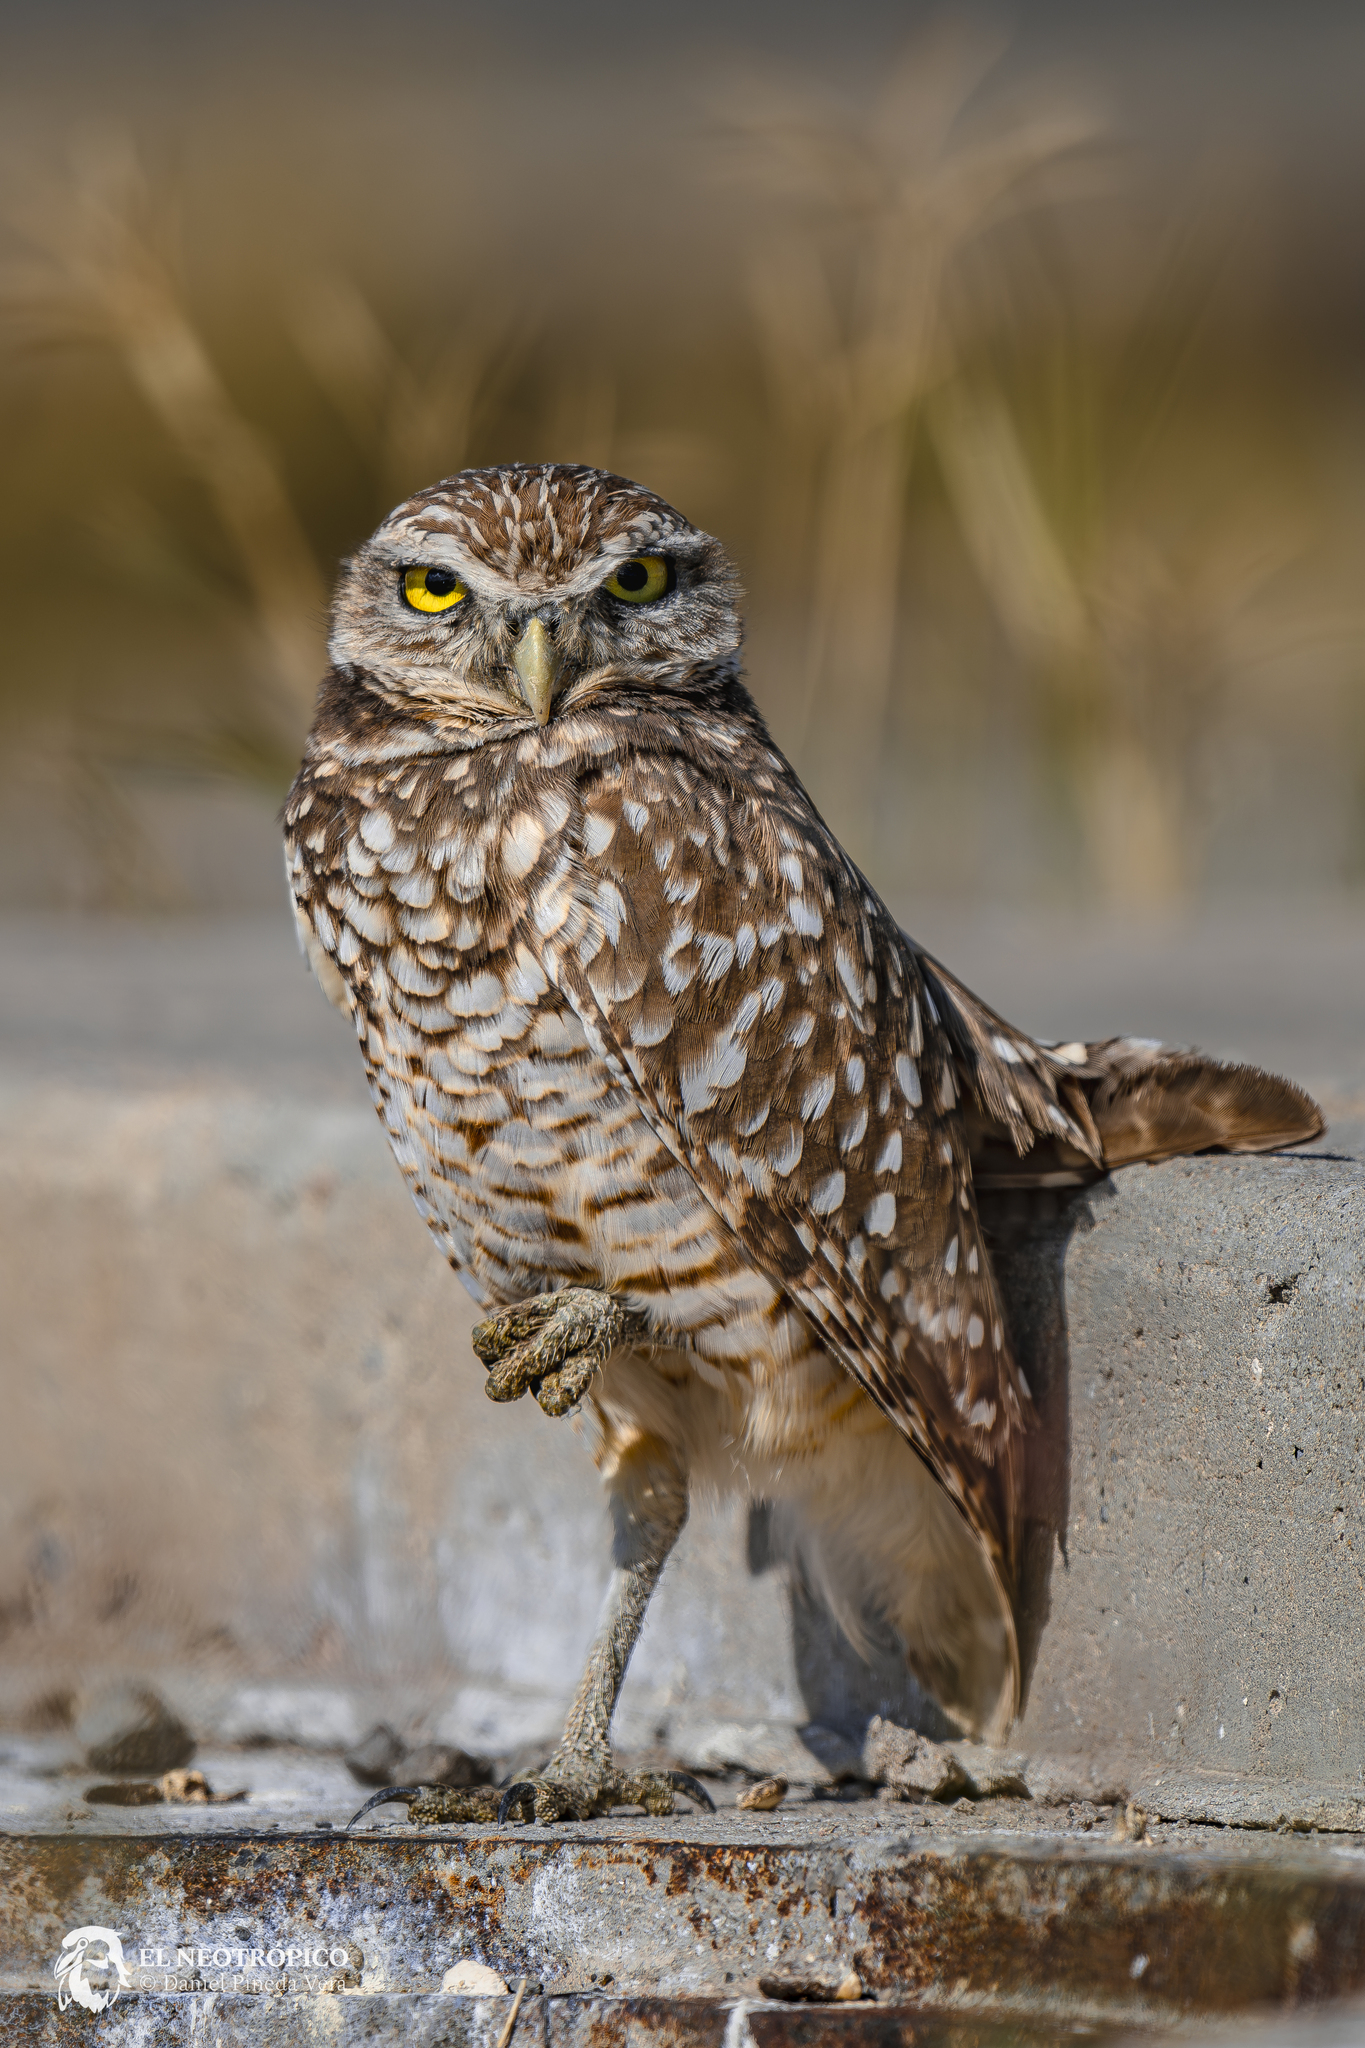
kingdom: Animalia
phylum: Chordata
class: Aves
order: Strigiformes
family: Strigidae
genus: Athene
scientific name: Athene cunicularia
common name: Burrowing owl
